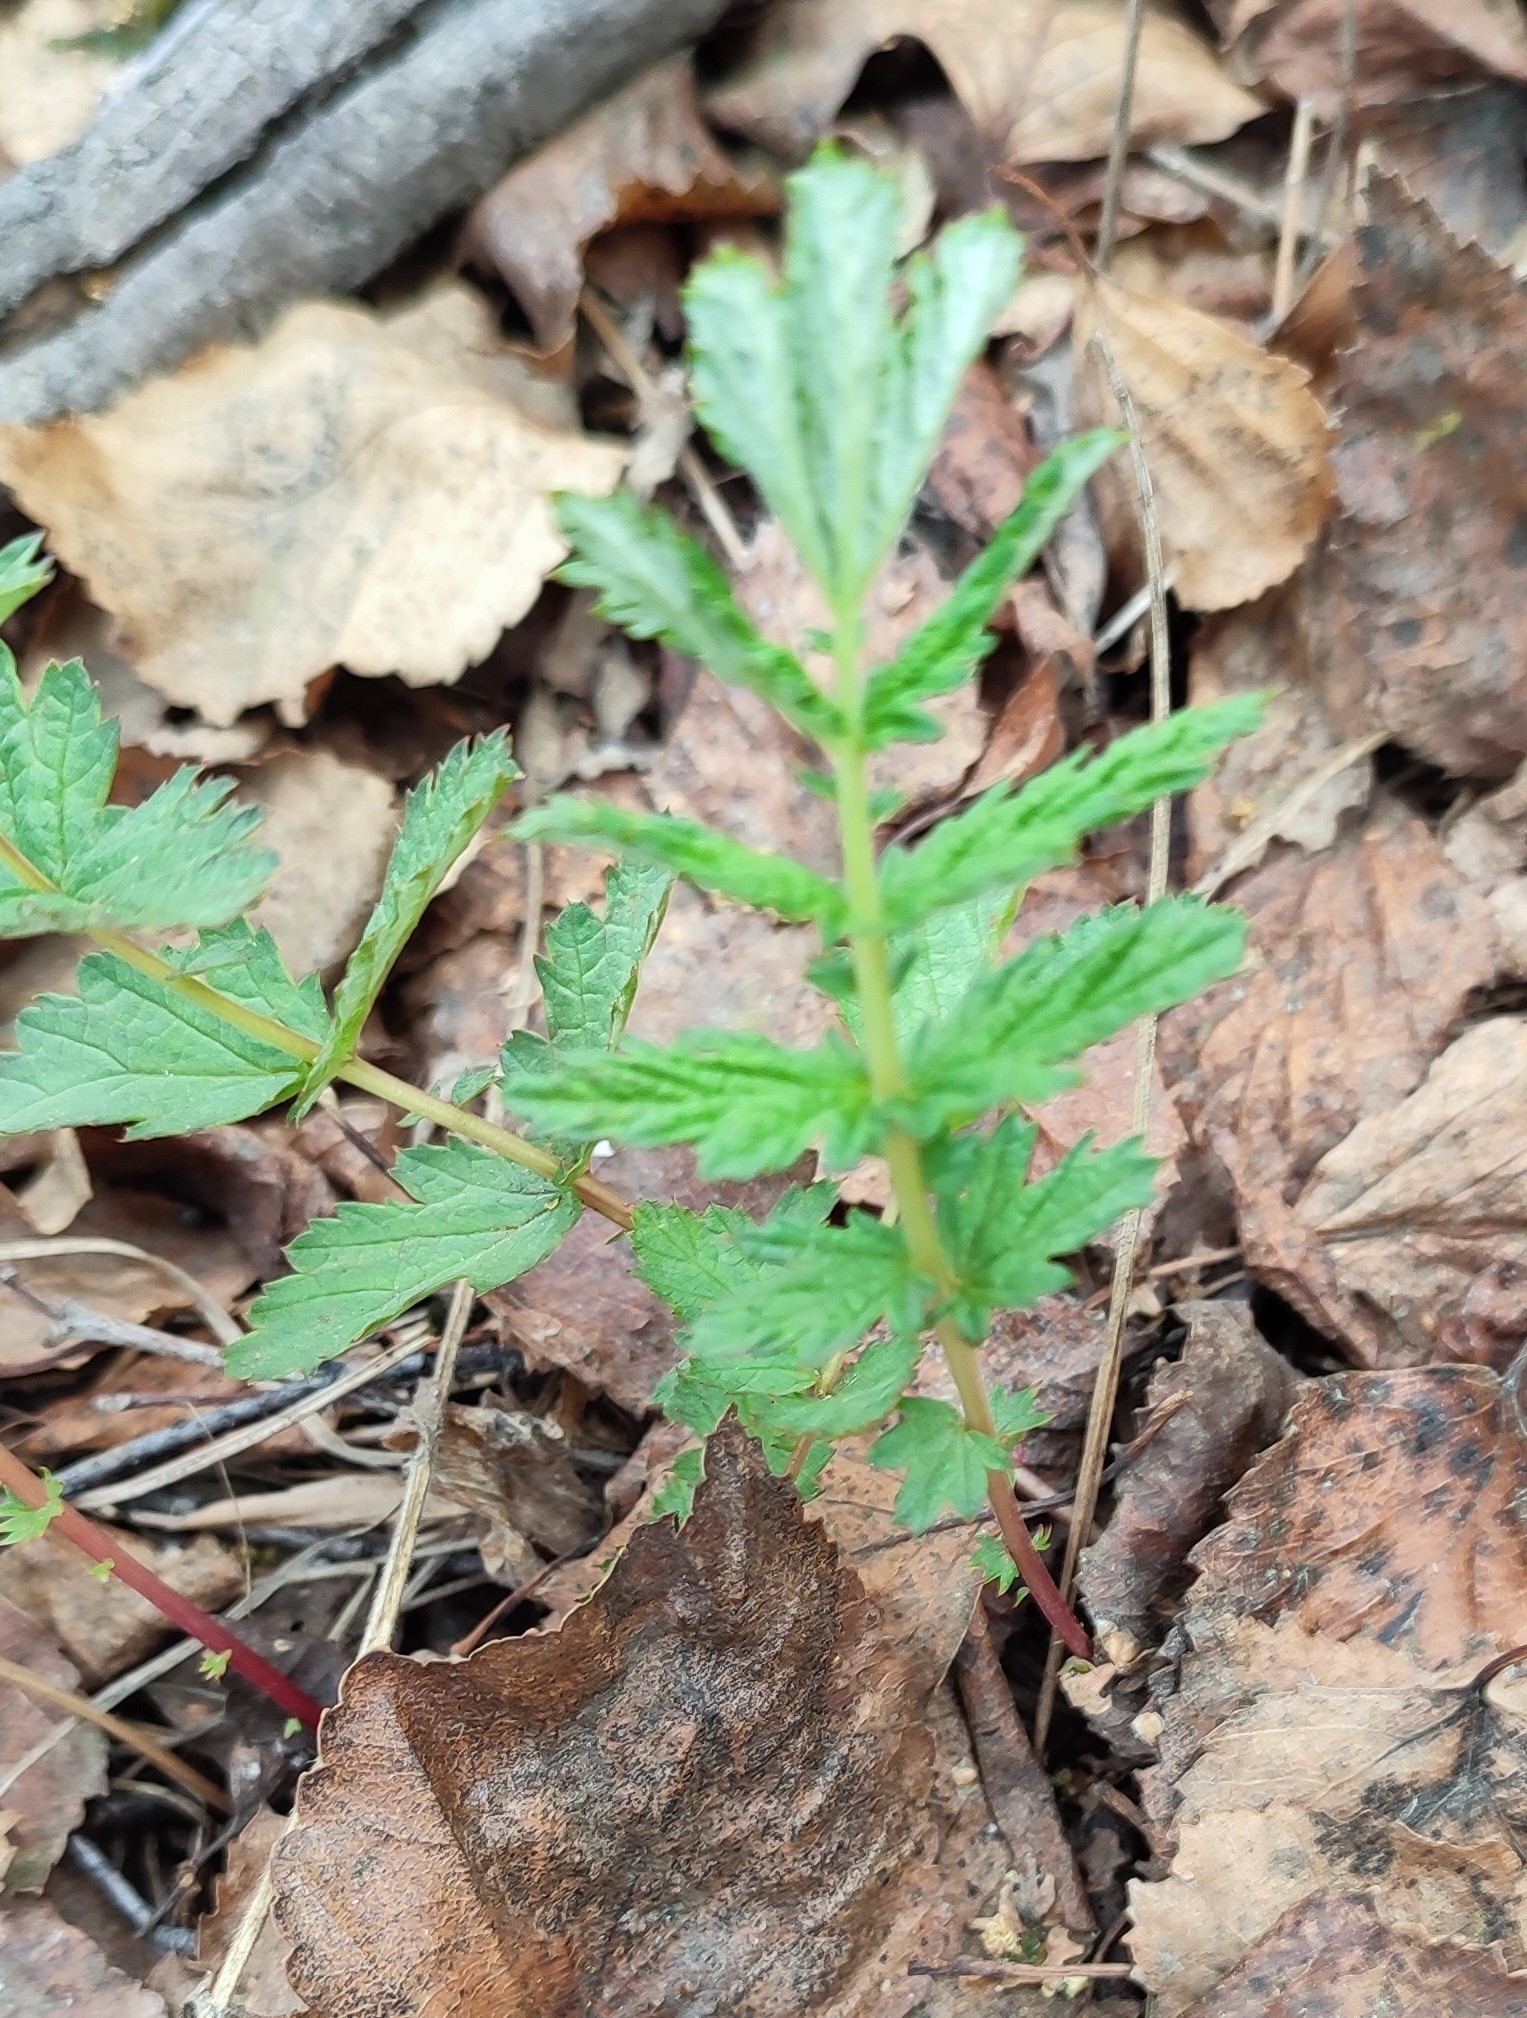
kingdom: Plantae
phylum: Tracheophyta
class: Magnoliopsida
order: Rosales
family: Rosaceae
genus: Filipendula
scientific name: Filipendula ulmaria
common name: Meadowsweet
